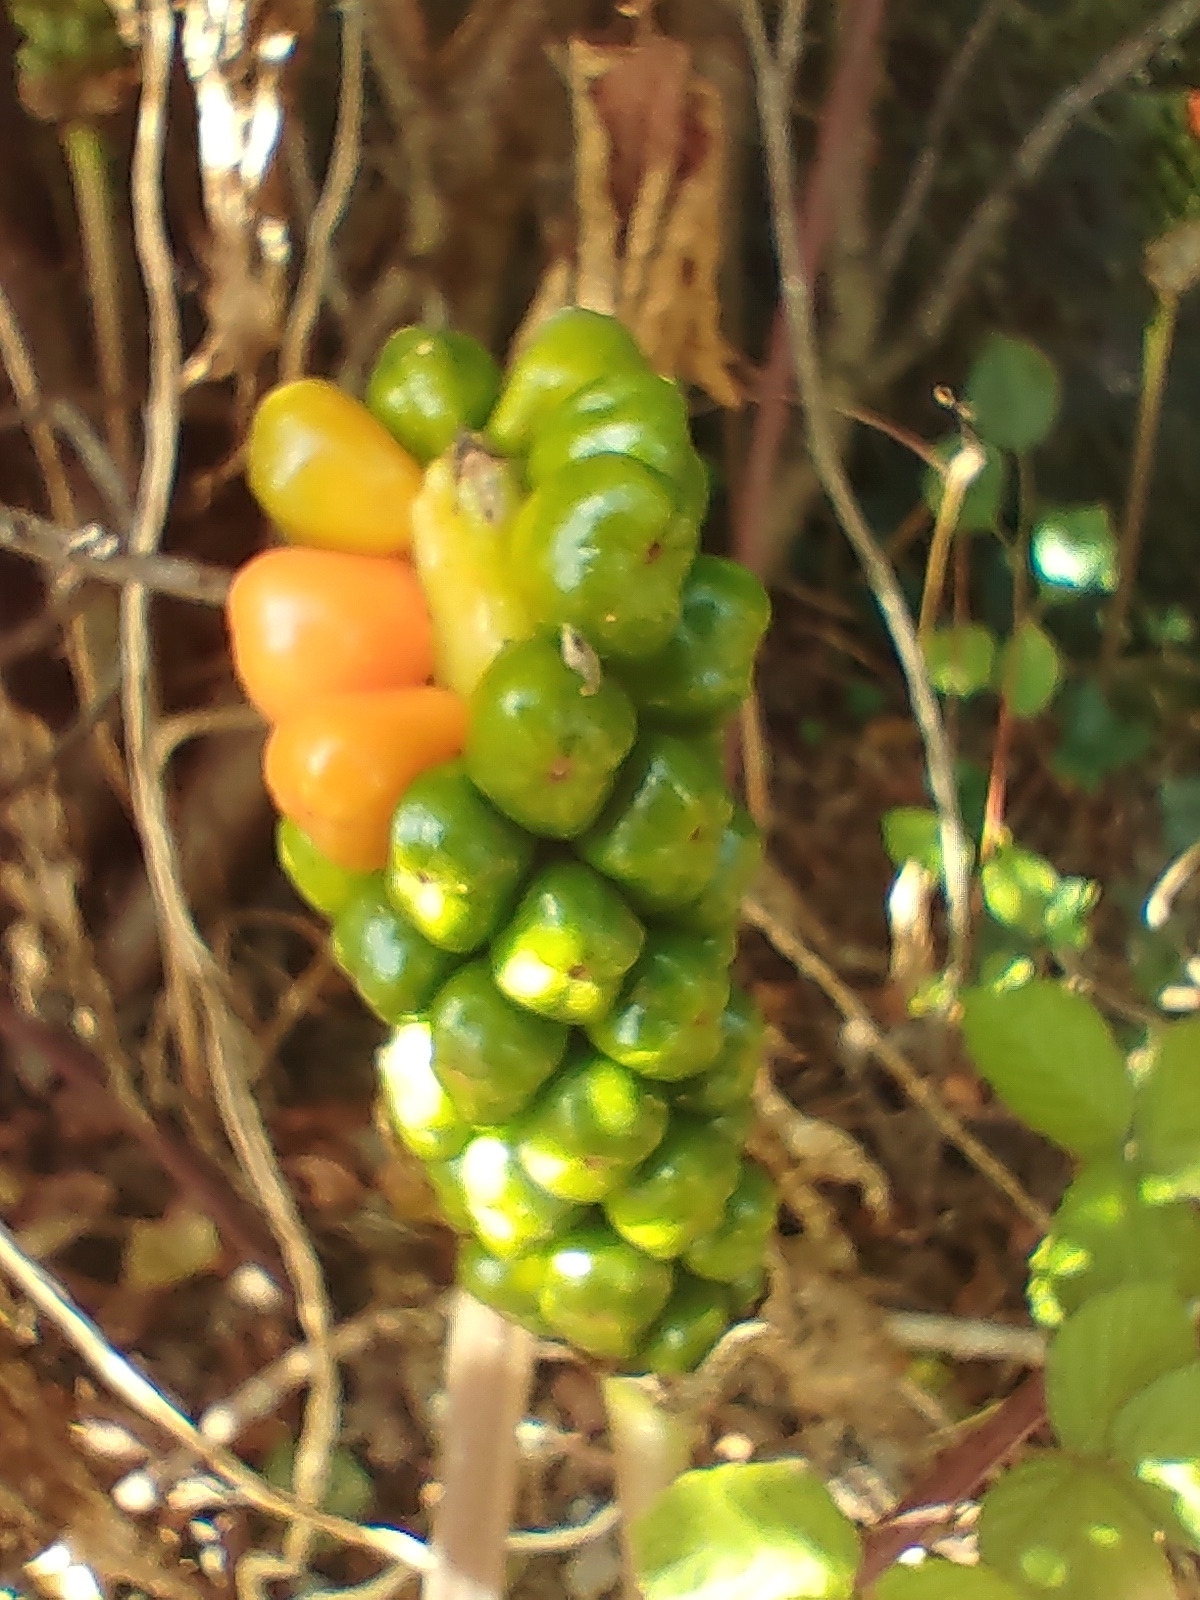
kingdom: Plantae
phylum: Tracheophyta
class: Liliopsida
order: Alismatales
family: Araceae
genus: Arum
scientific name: Arum maculatum
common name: Lords-and-ladies
